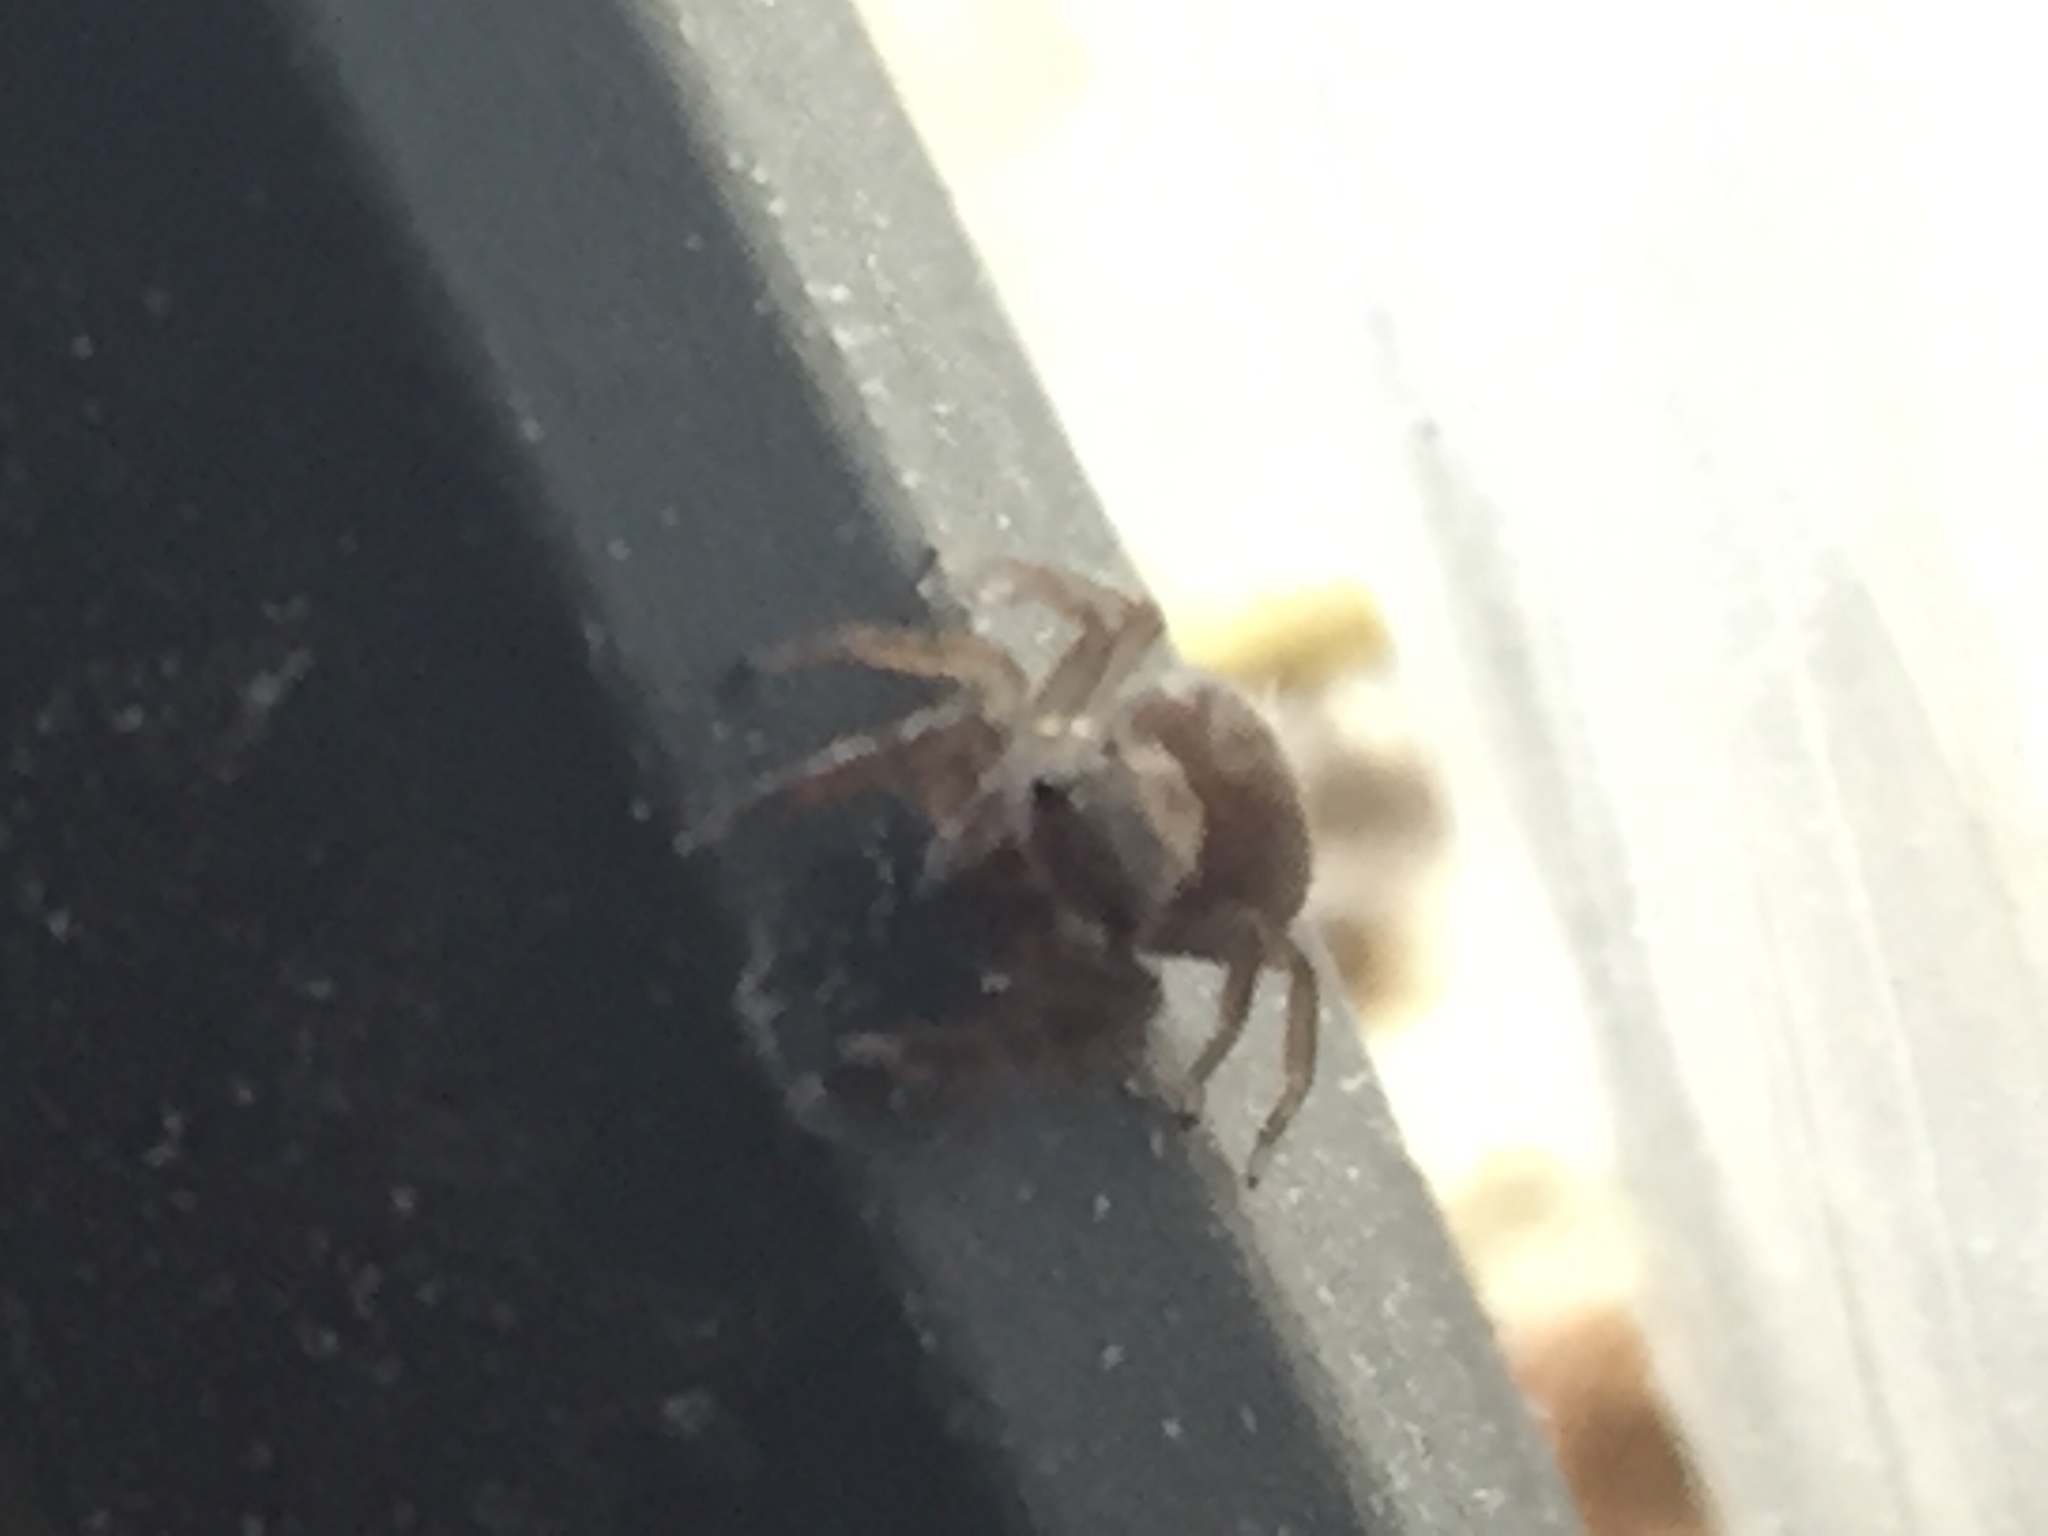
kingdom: Animalia
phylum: Arthropoda
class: Arachnida
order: Araneae
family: Salticidae
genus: Trite
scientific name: Trite auricoma
